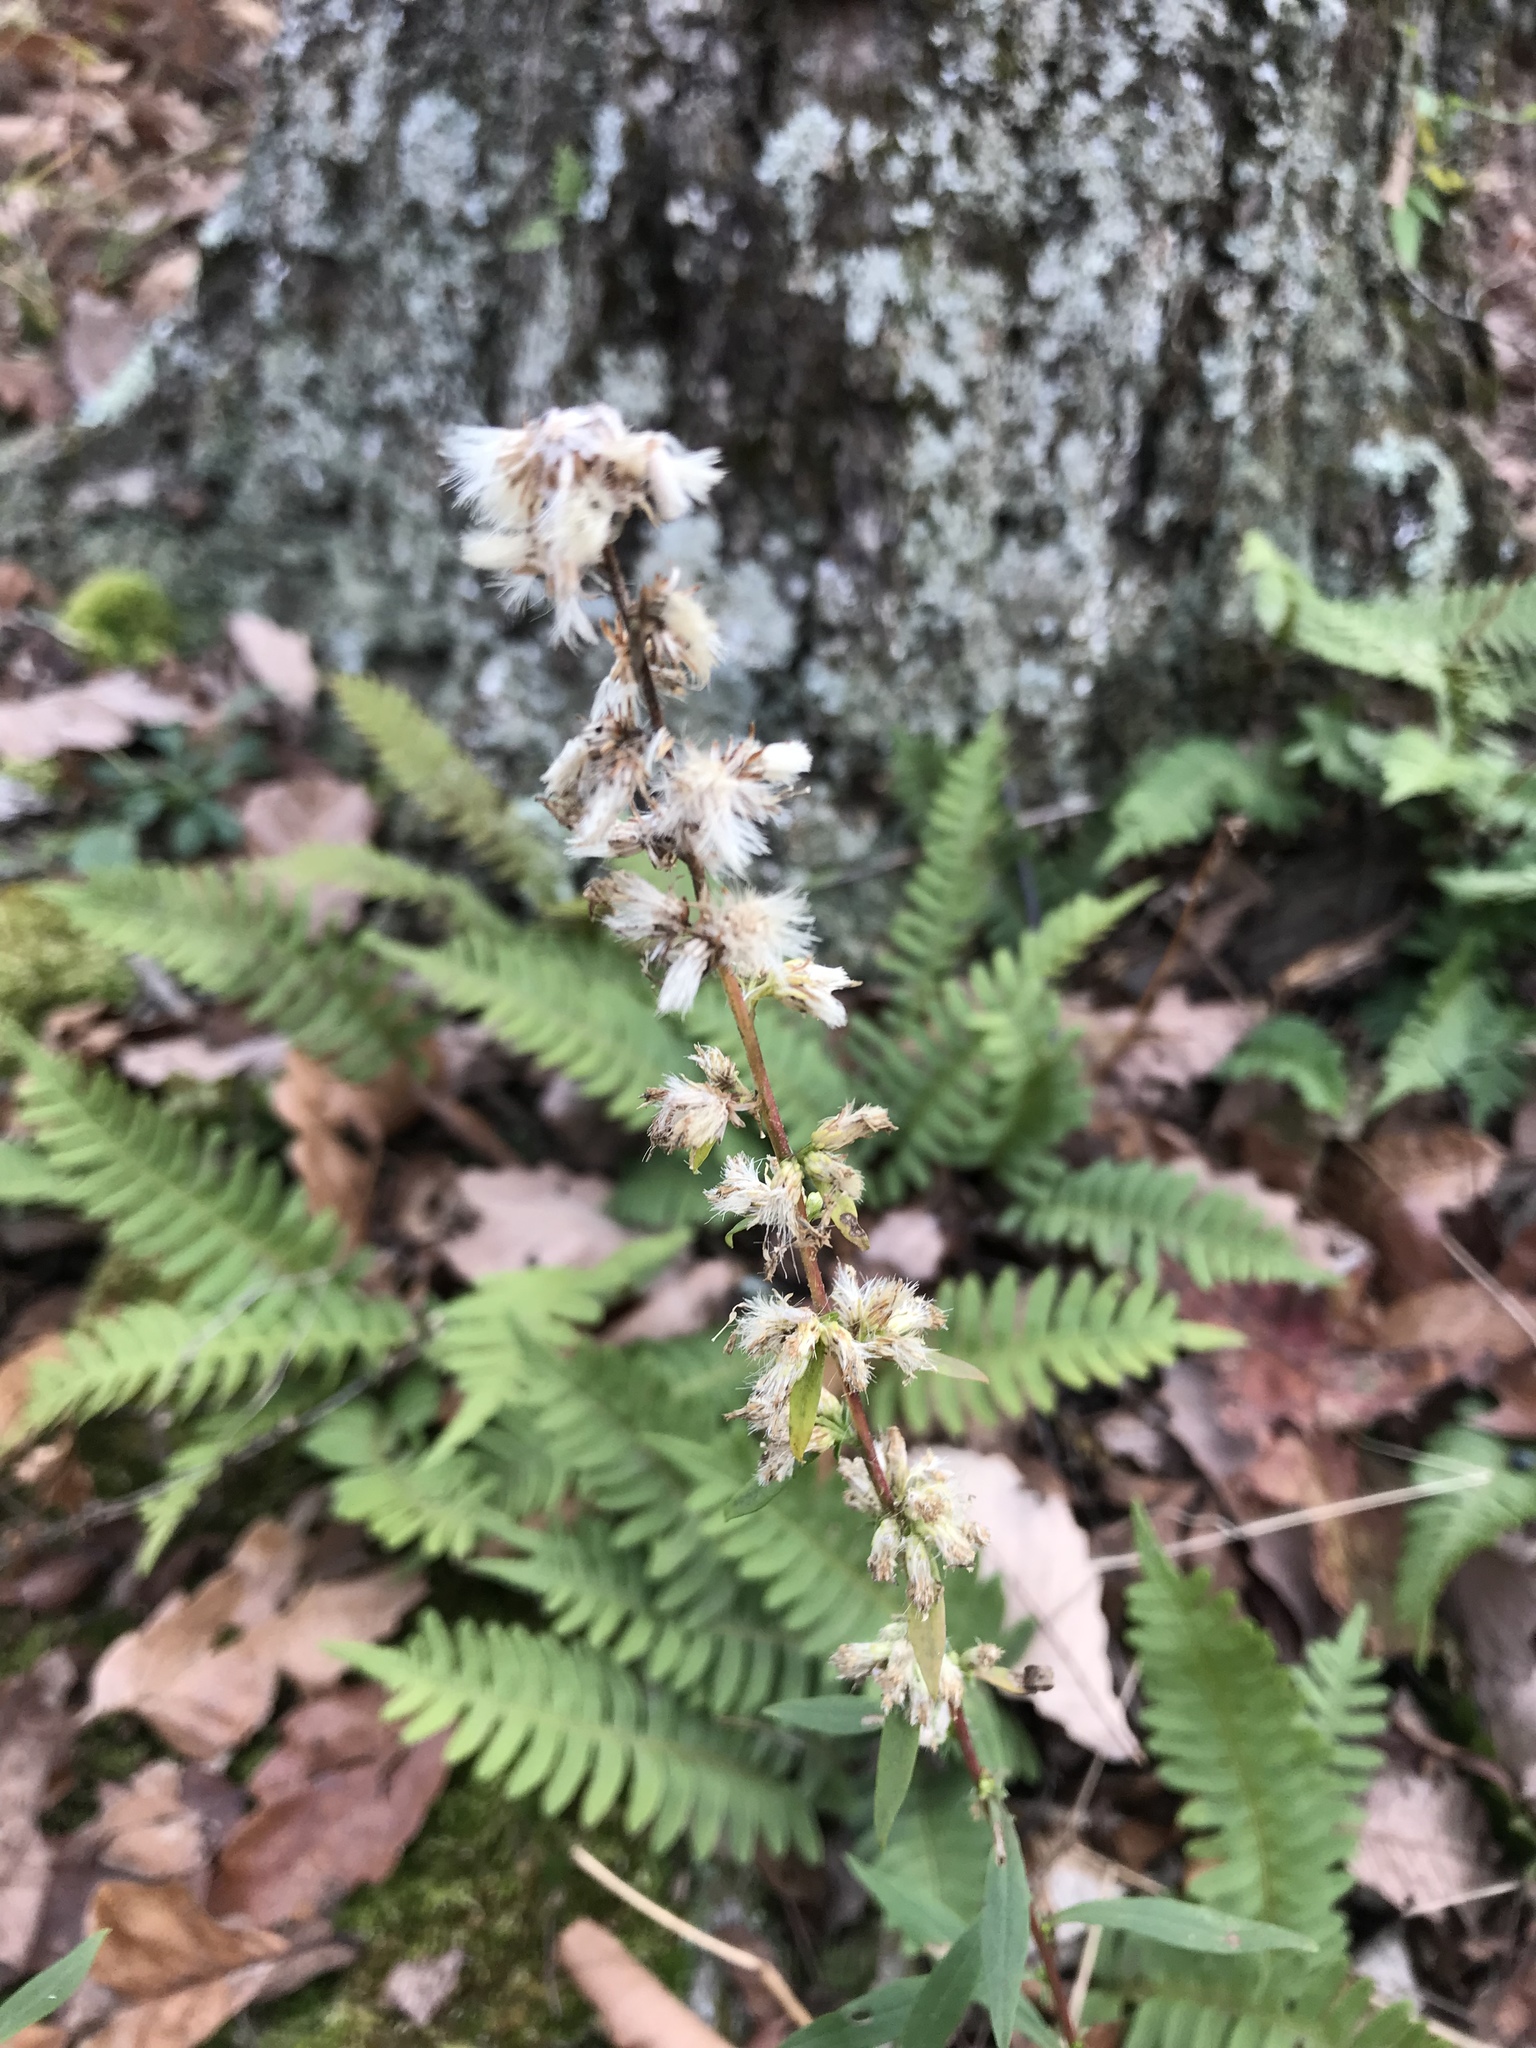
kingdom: Plantae
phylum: Tracheophyta
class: Magnoliopsida
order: Asterales
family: Asteraceae
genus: Solidago
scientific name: Solidago bicolor
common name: Silverrod
